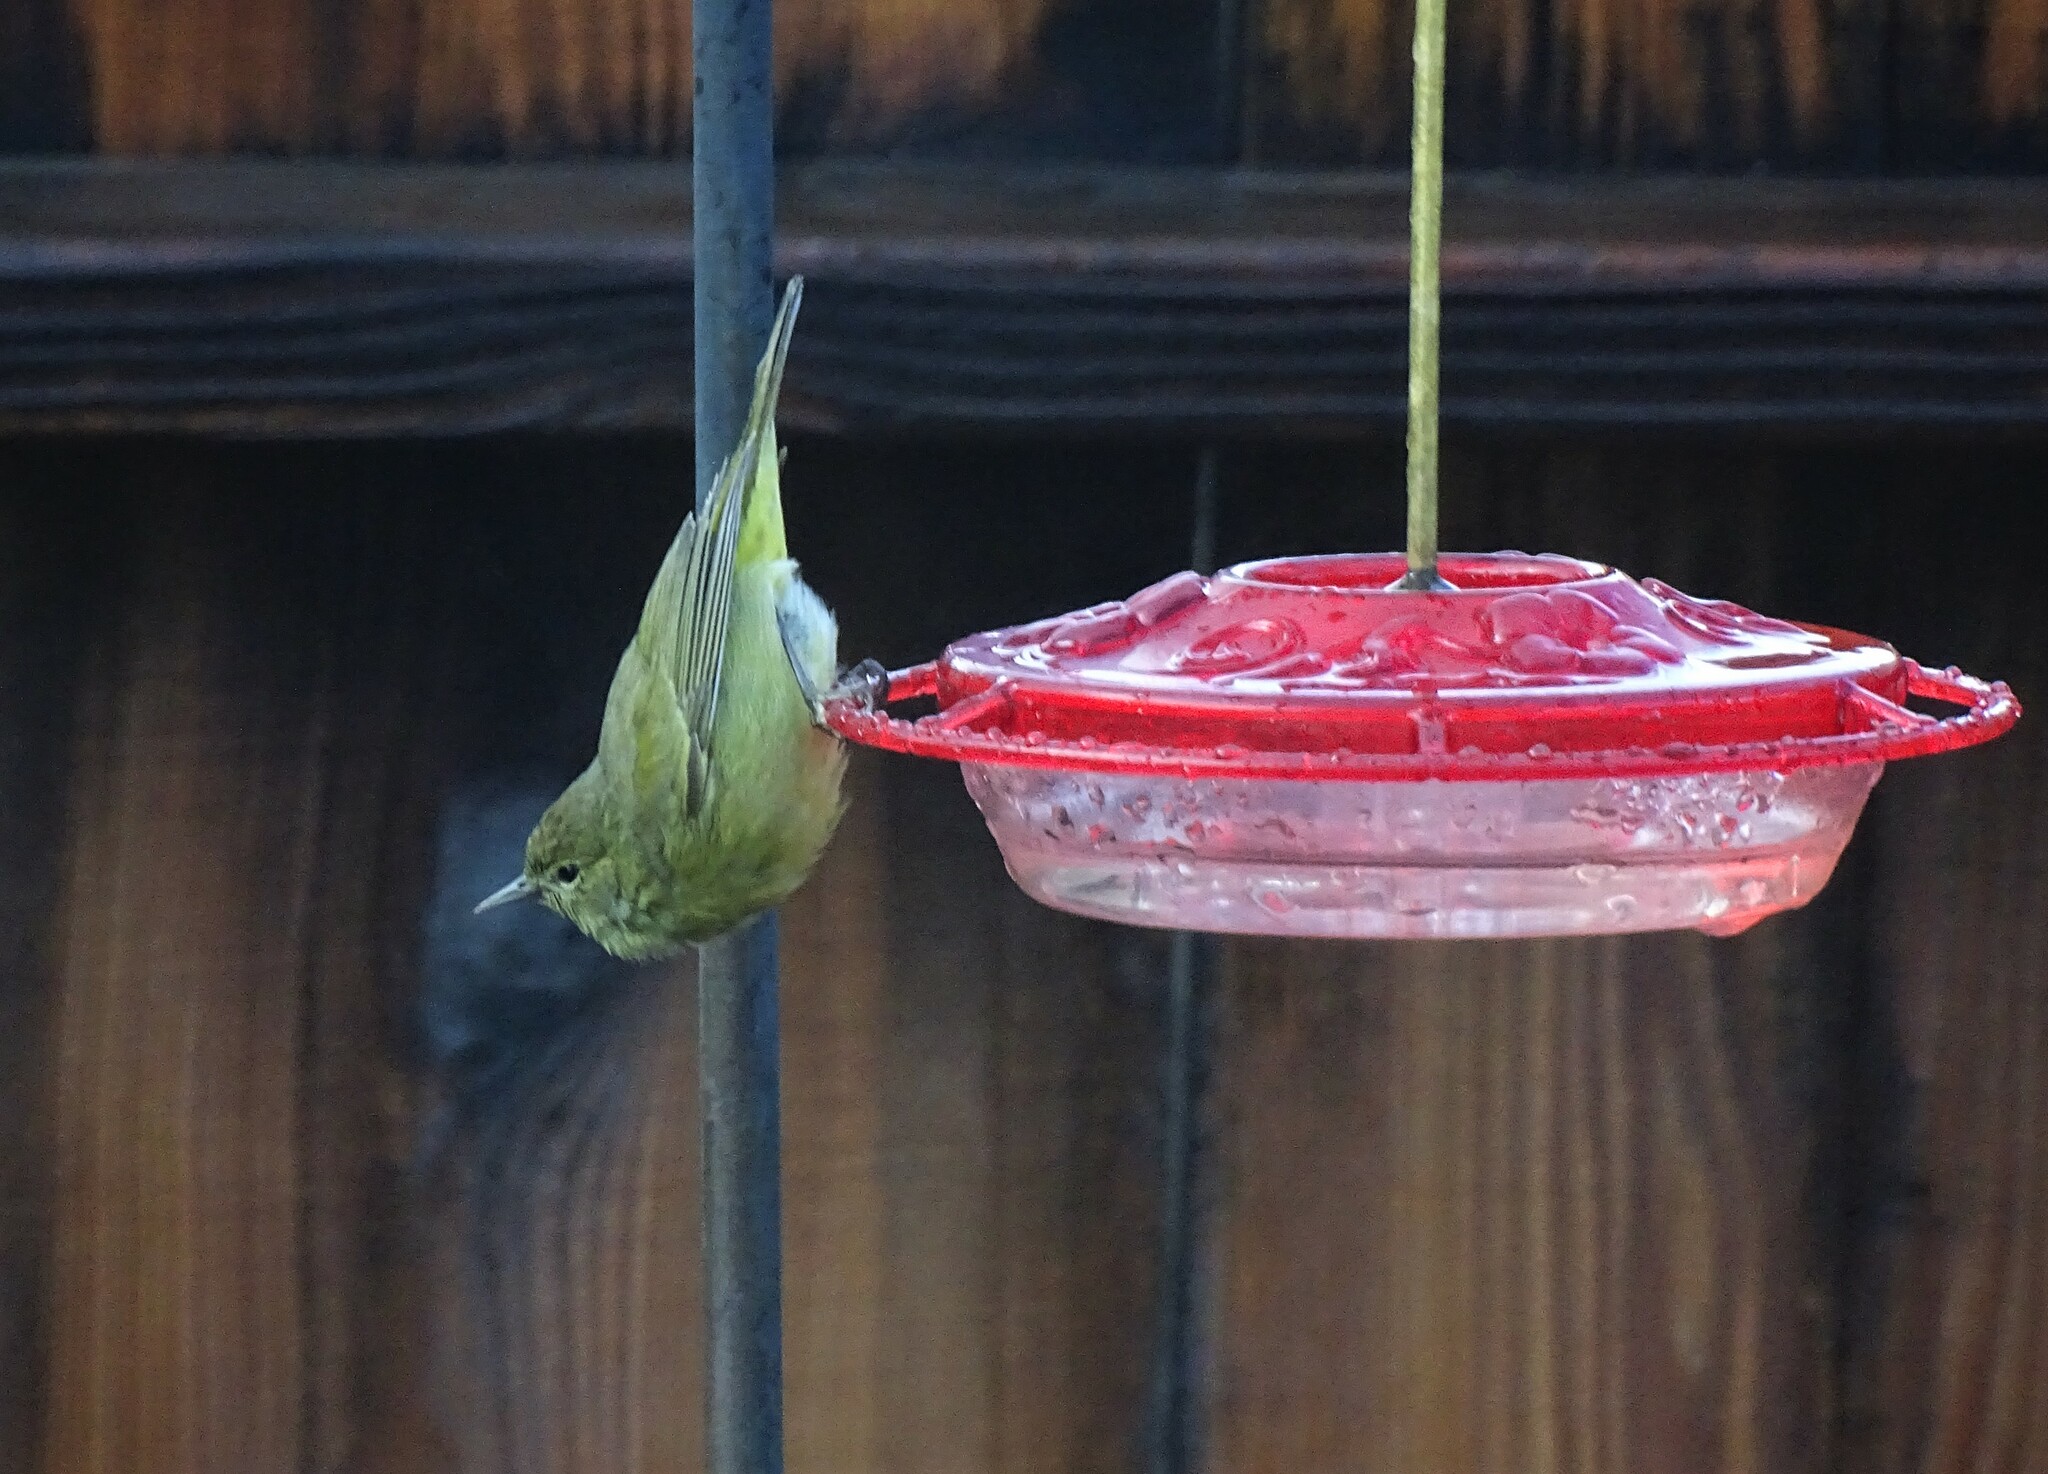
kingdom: Animalia
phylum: Chordata
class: Aves
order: Passeriformes
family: Parulidae
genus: Leiothlypis
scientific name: Leiothlypis celata
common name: Orange-crowned warbler
